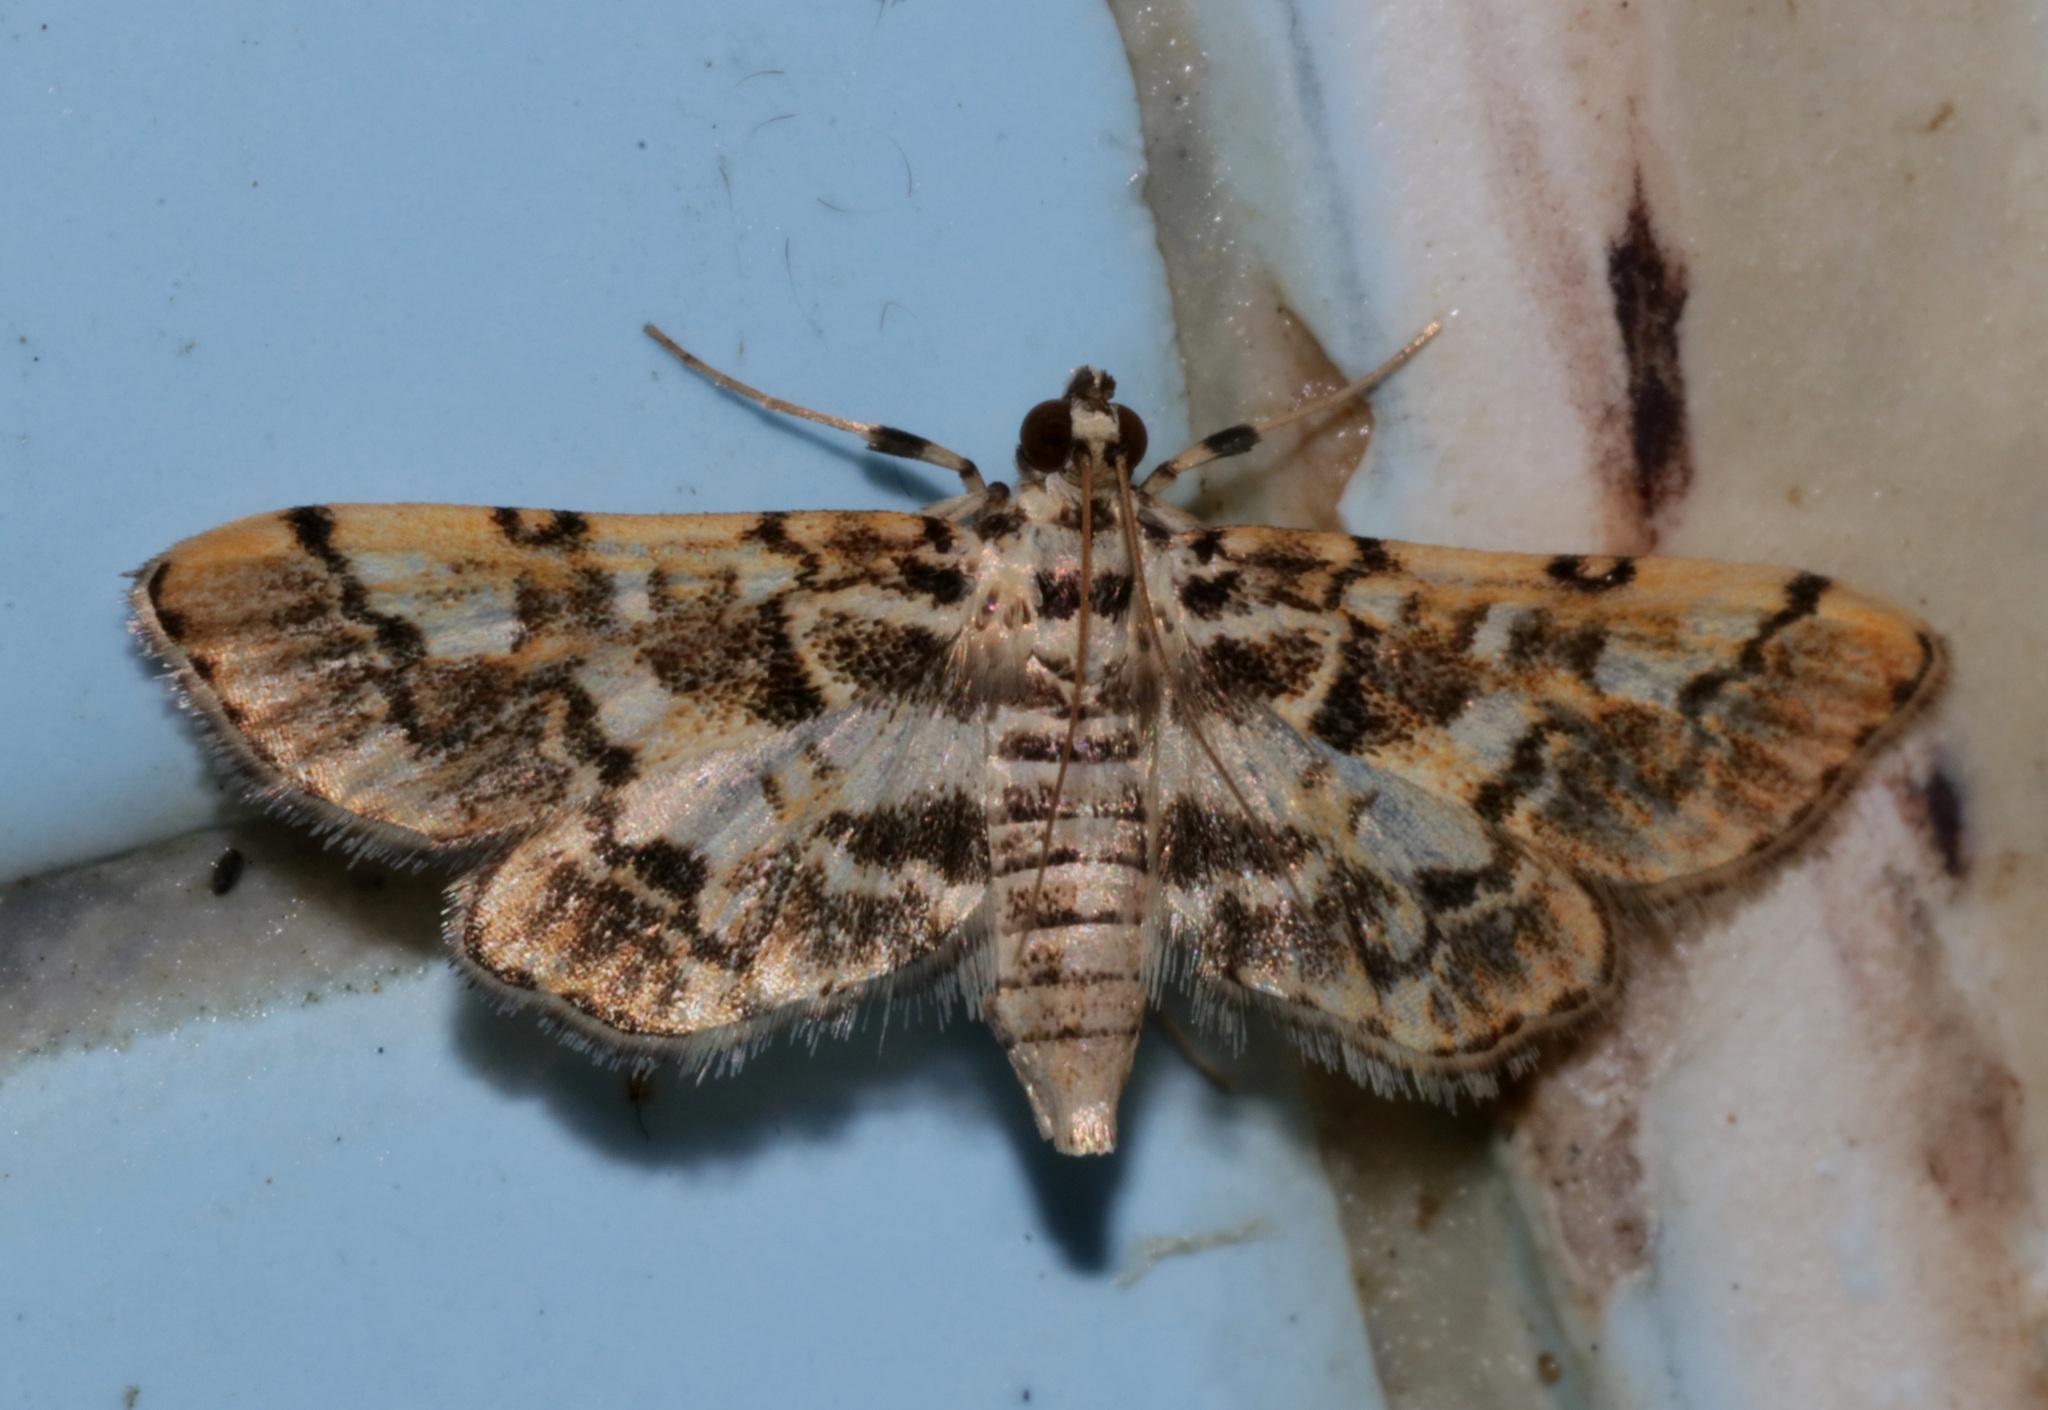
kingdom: Animalia
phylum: Arthropoda
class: Insecta
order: Lepidoptera
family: Crambidae
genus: Lamprosema
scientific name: Lamprosema commixta
